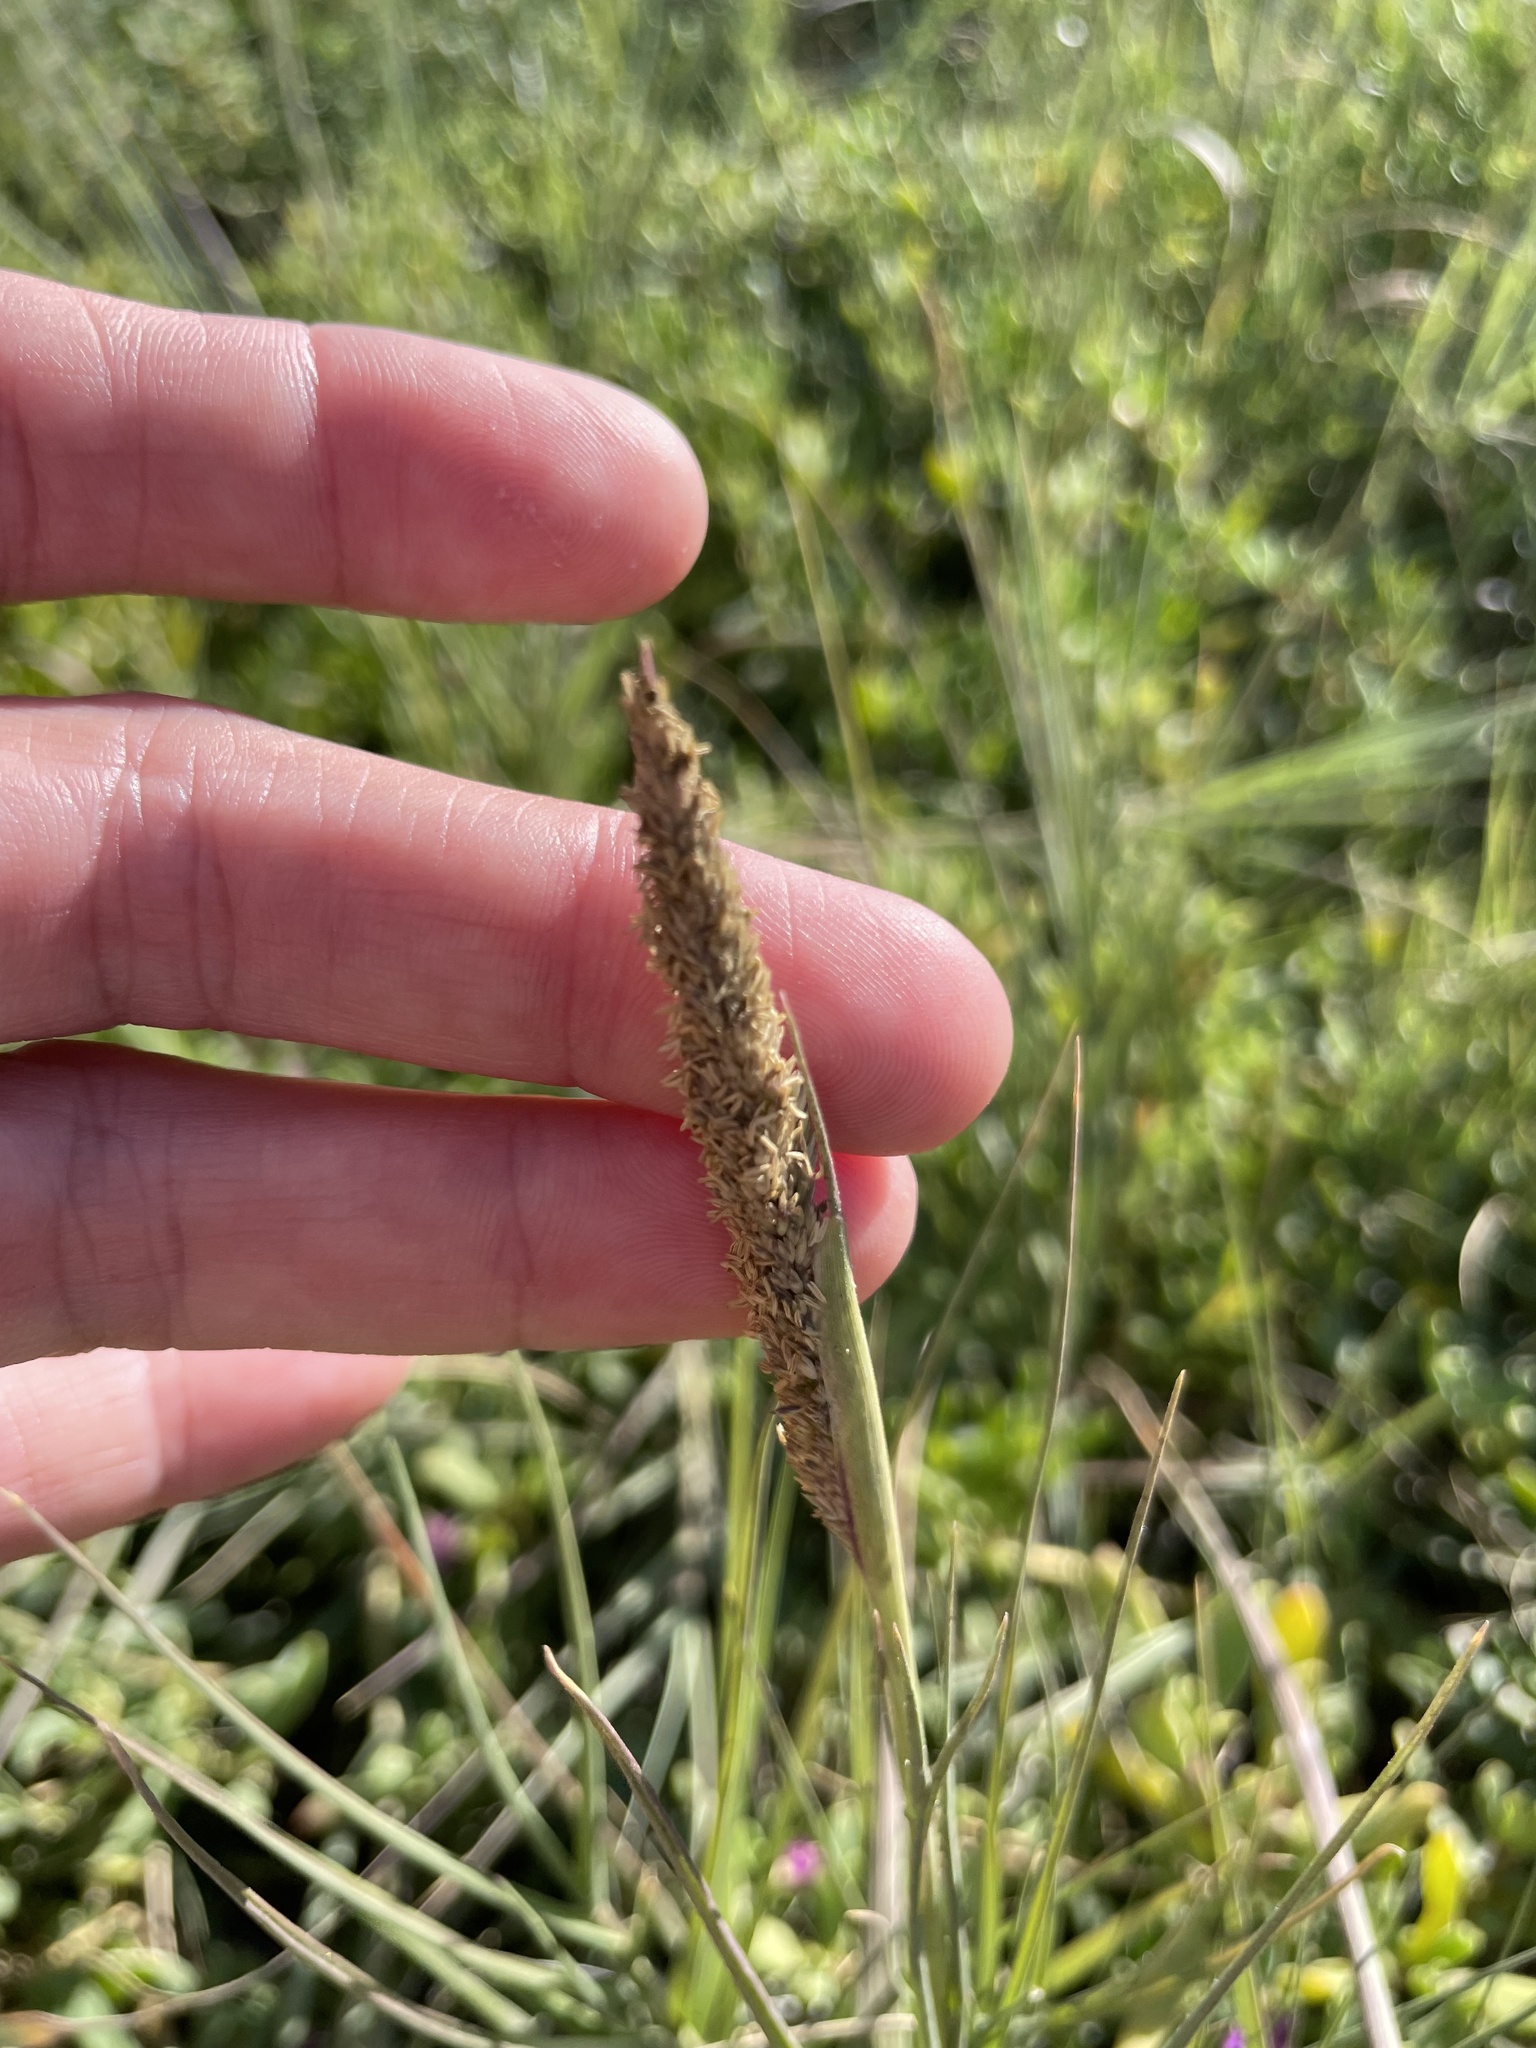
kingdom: Plantae
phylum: Tracheophyta
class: Liliopsida
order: Poales
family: Poaceae
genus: Sporobolus
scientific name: Sporobolus virginicus
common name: Beach dropseed
